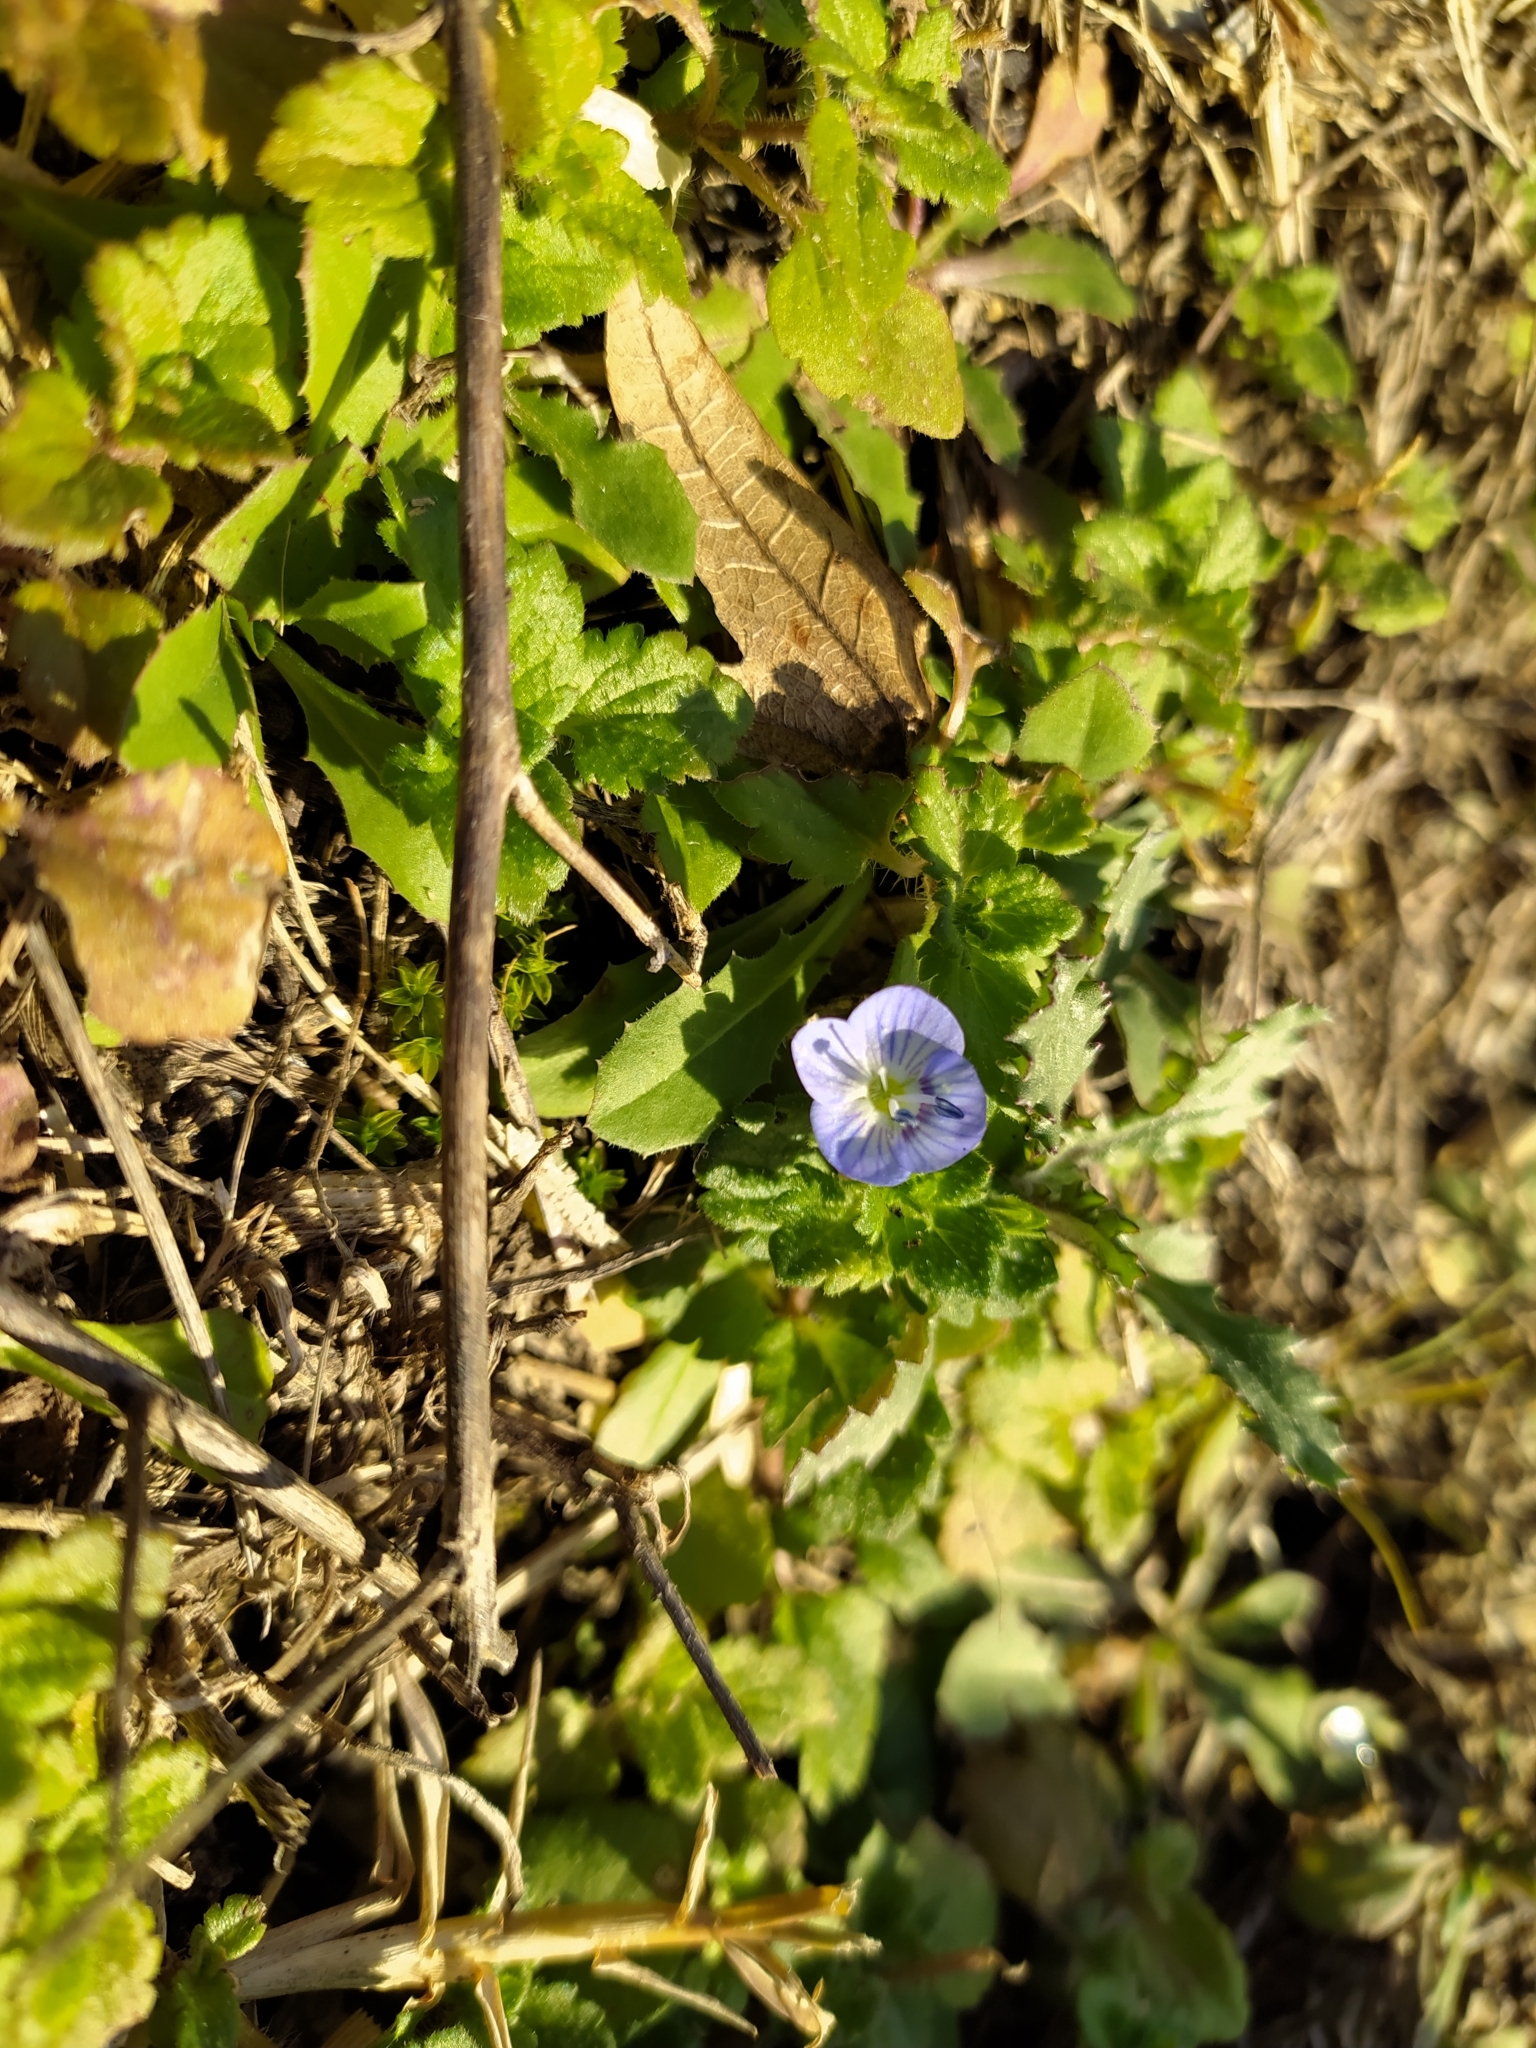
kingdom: Plantae
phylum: Tracheophyta
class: Magnoliopsida
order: Lamiales
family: Plantaginaceae
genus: Veronica
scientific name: Veronica persica
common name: Common field-speedwell
